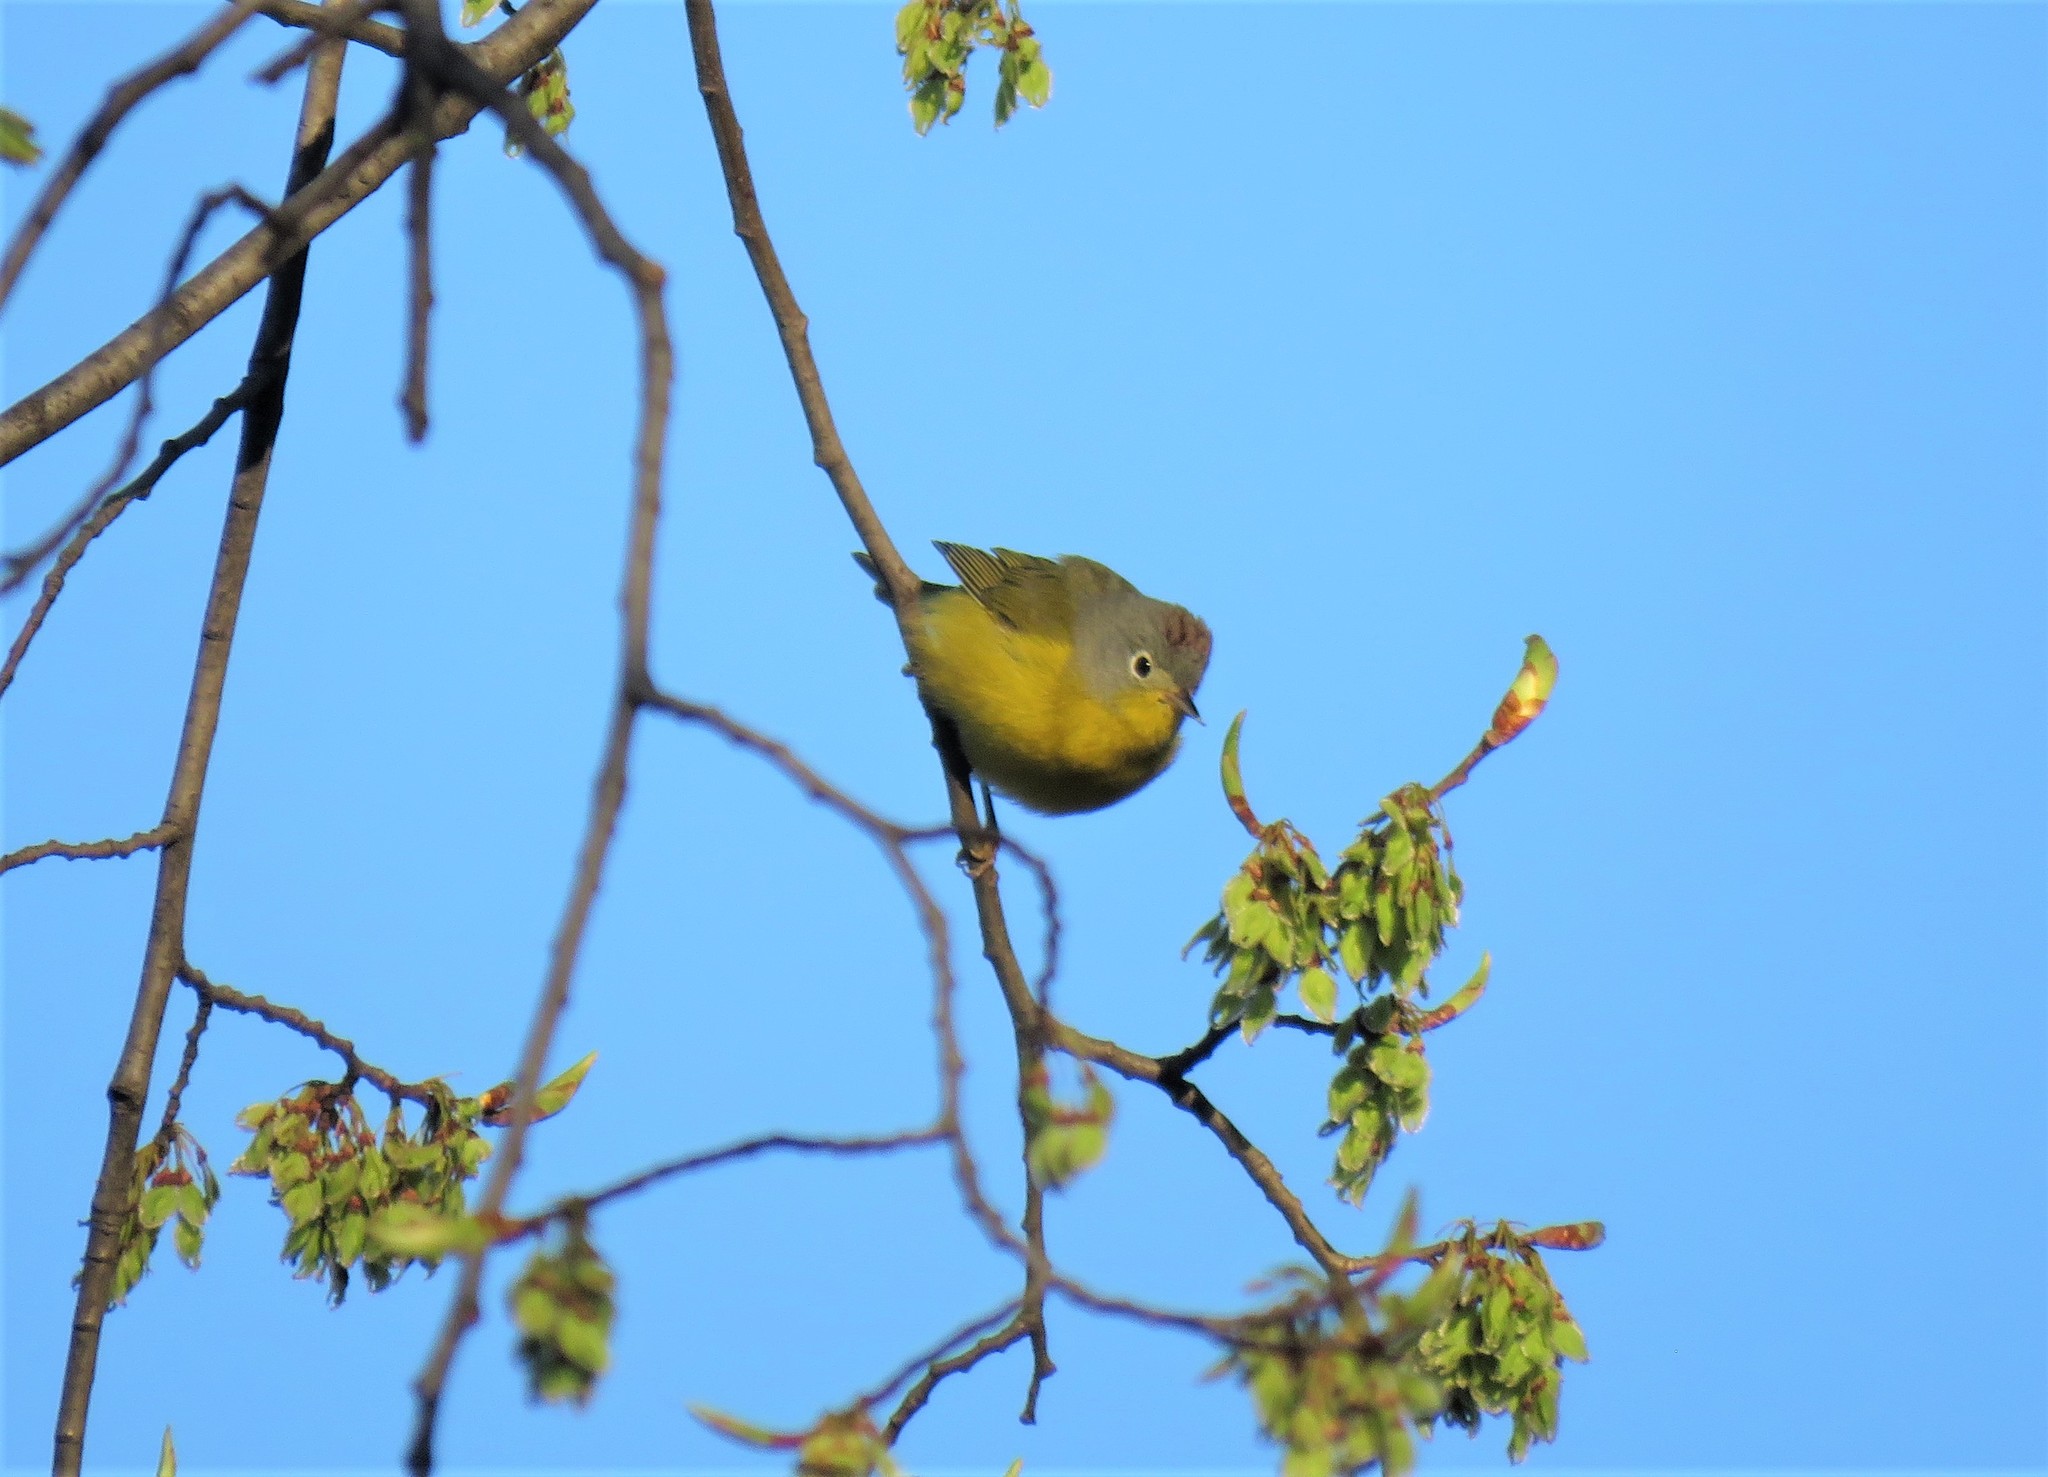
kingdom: Animalia
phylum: Chordata
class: Aves
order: Passeriformes
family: Parulidae
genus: Leiothlypis
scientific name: Leiothlypis ruficapilla
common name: Nashville warbler
